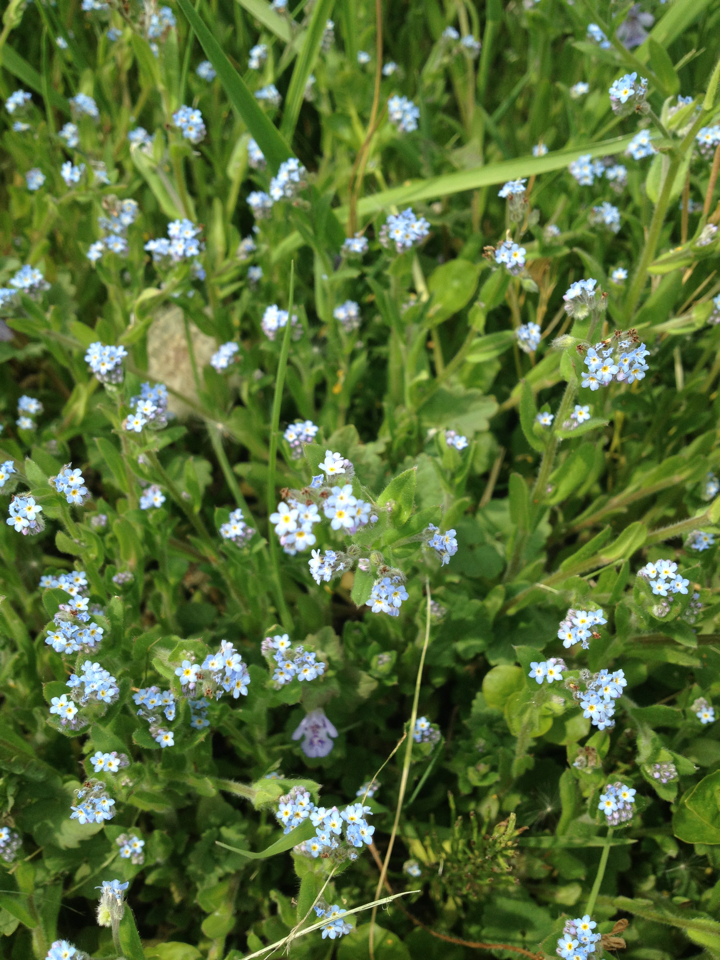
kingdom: Plantae
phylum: Tracheophyta
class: Magnoliopsida
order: Boraginales
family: Boraginaceae
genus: Myosotis
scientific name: Myosotis arvensis
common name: Field forget-me-not
